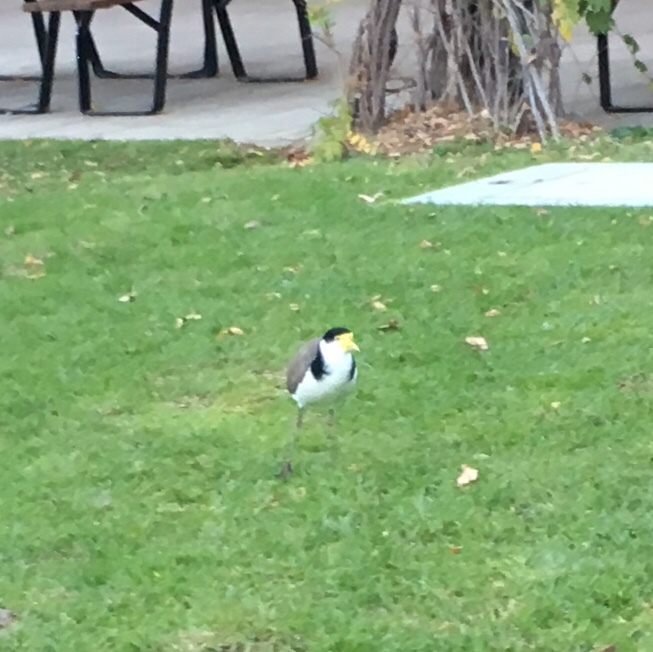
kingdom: Animalia
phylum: Chordata
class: Aves
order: Charadriiformes
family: Charadriidae
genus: Vanellus
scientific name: Vanellus miles
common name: Masked lapwing
